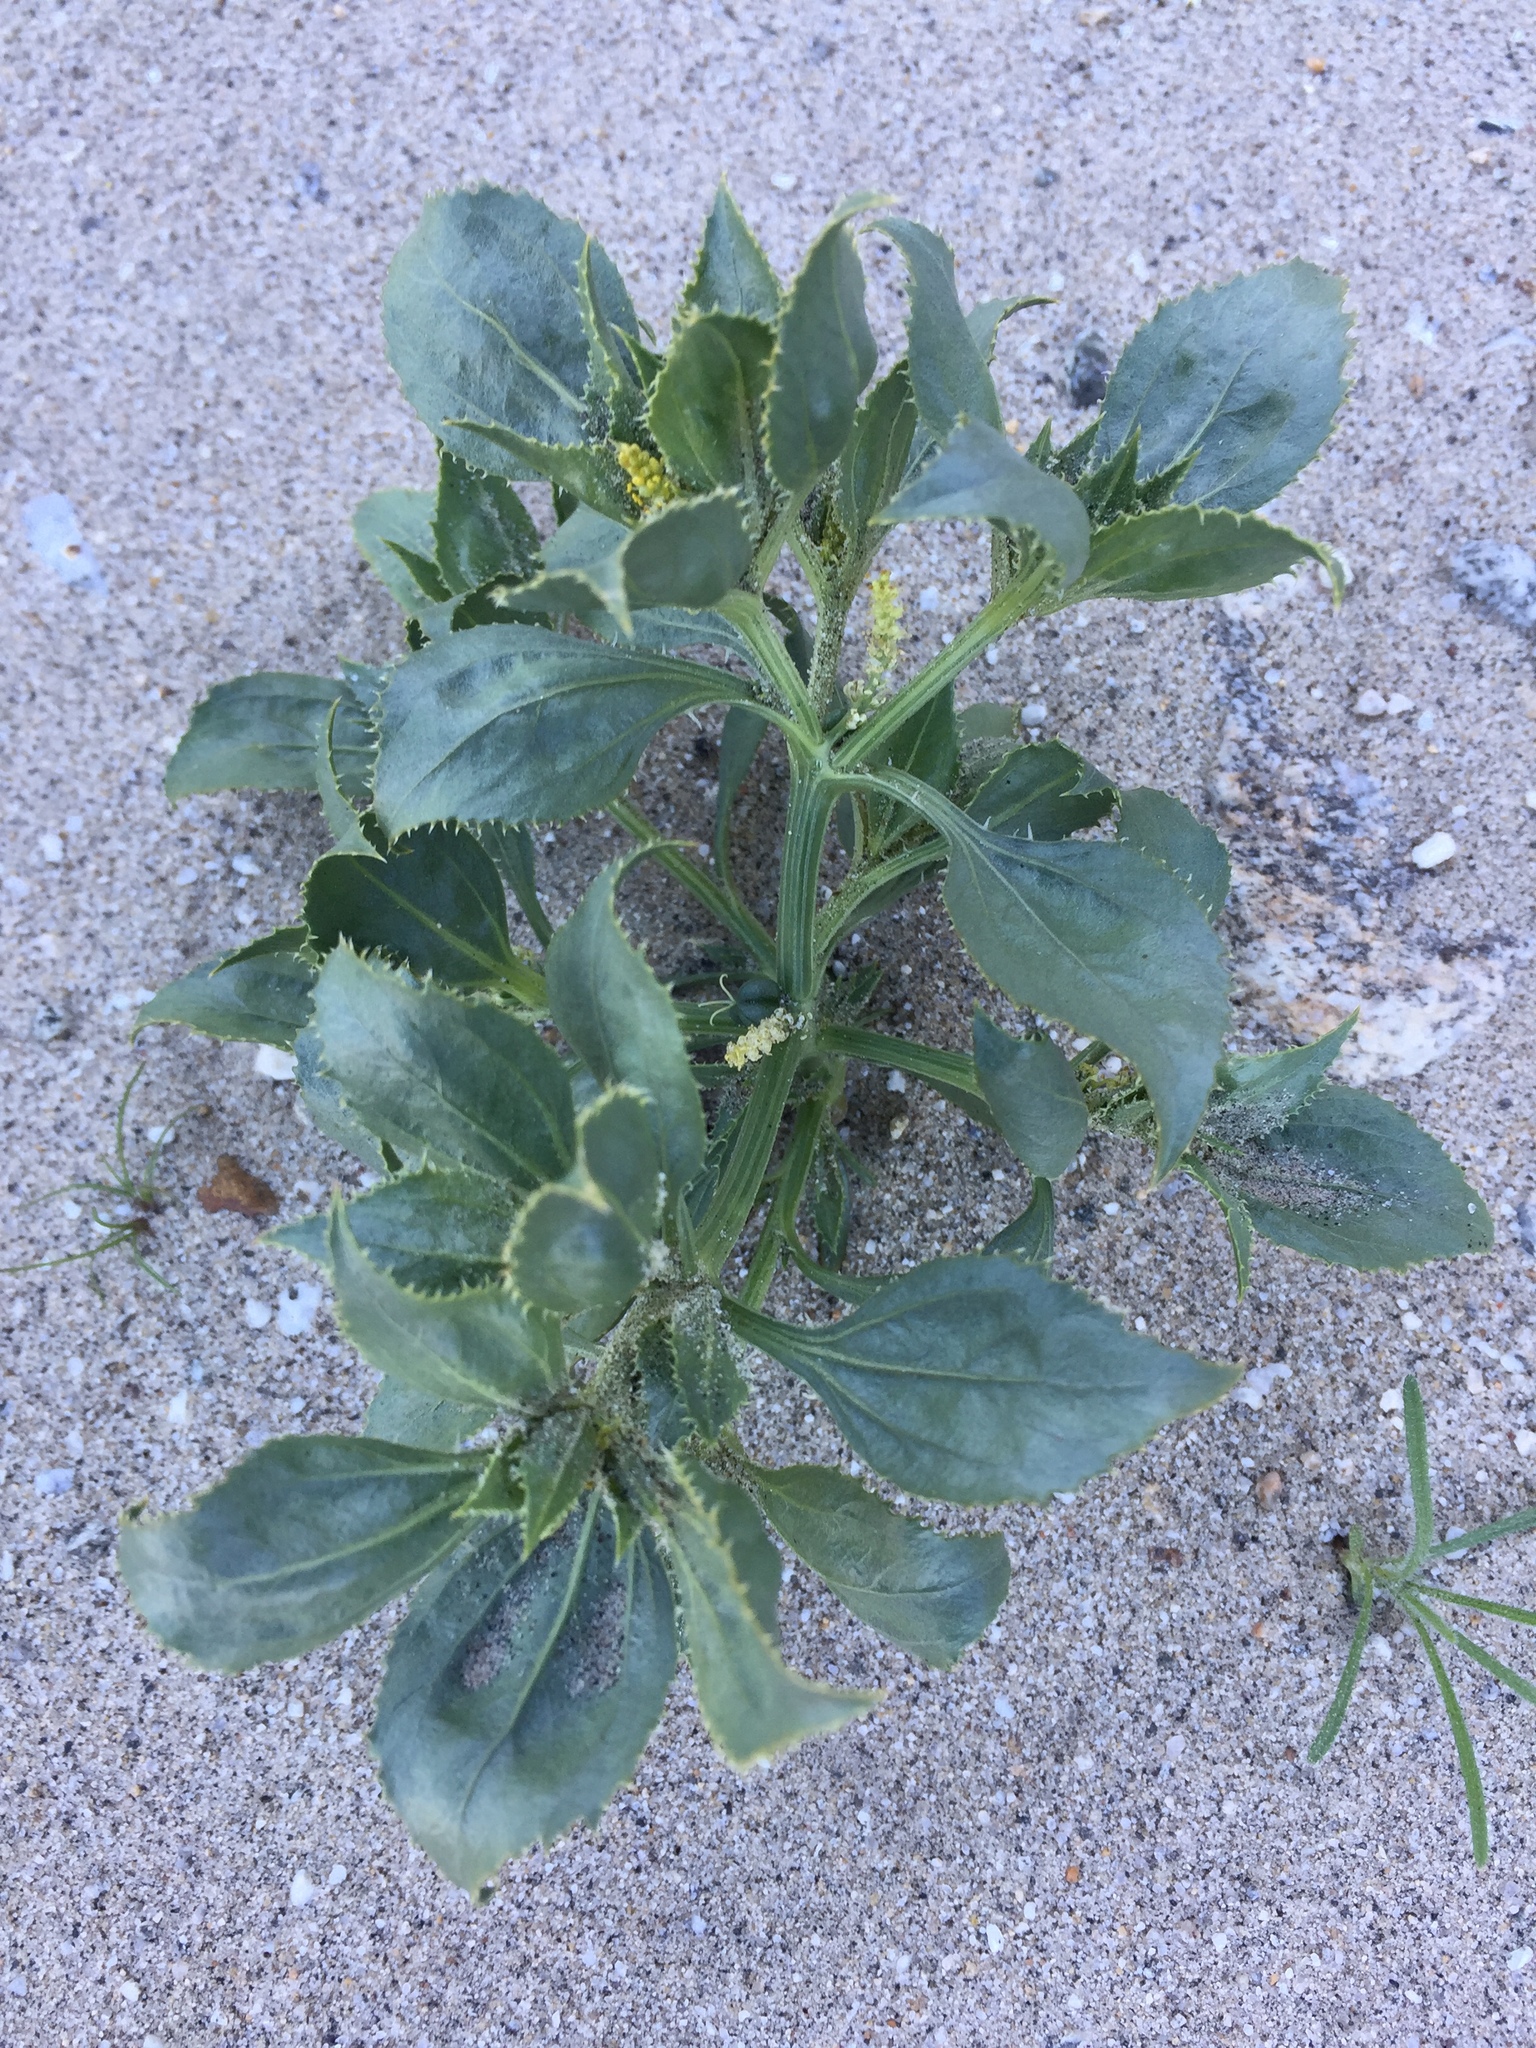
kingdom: Plantae
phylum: Tracheophyta
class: Magnoliopsida
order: Malpighiales
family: Euphorbiaceae
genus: Stillingia
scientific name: Stillingia spinulosa
